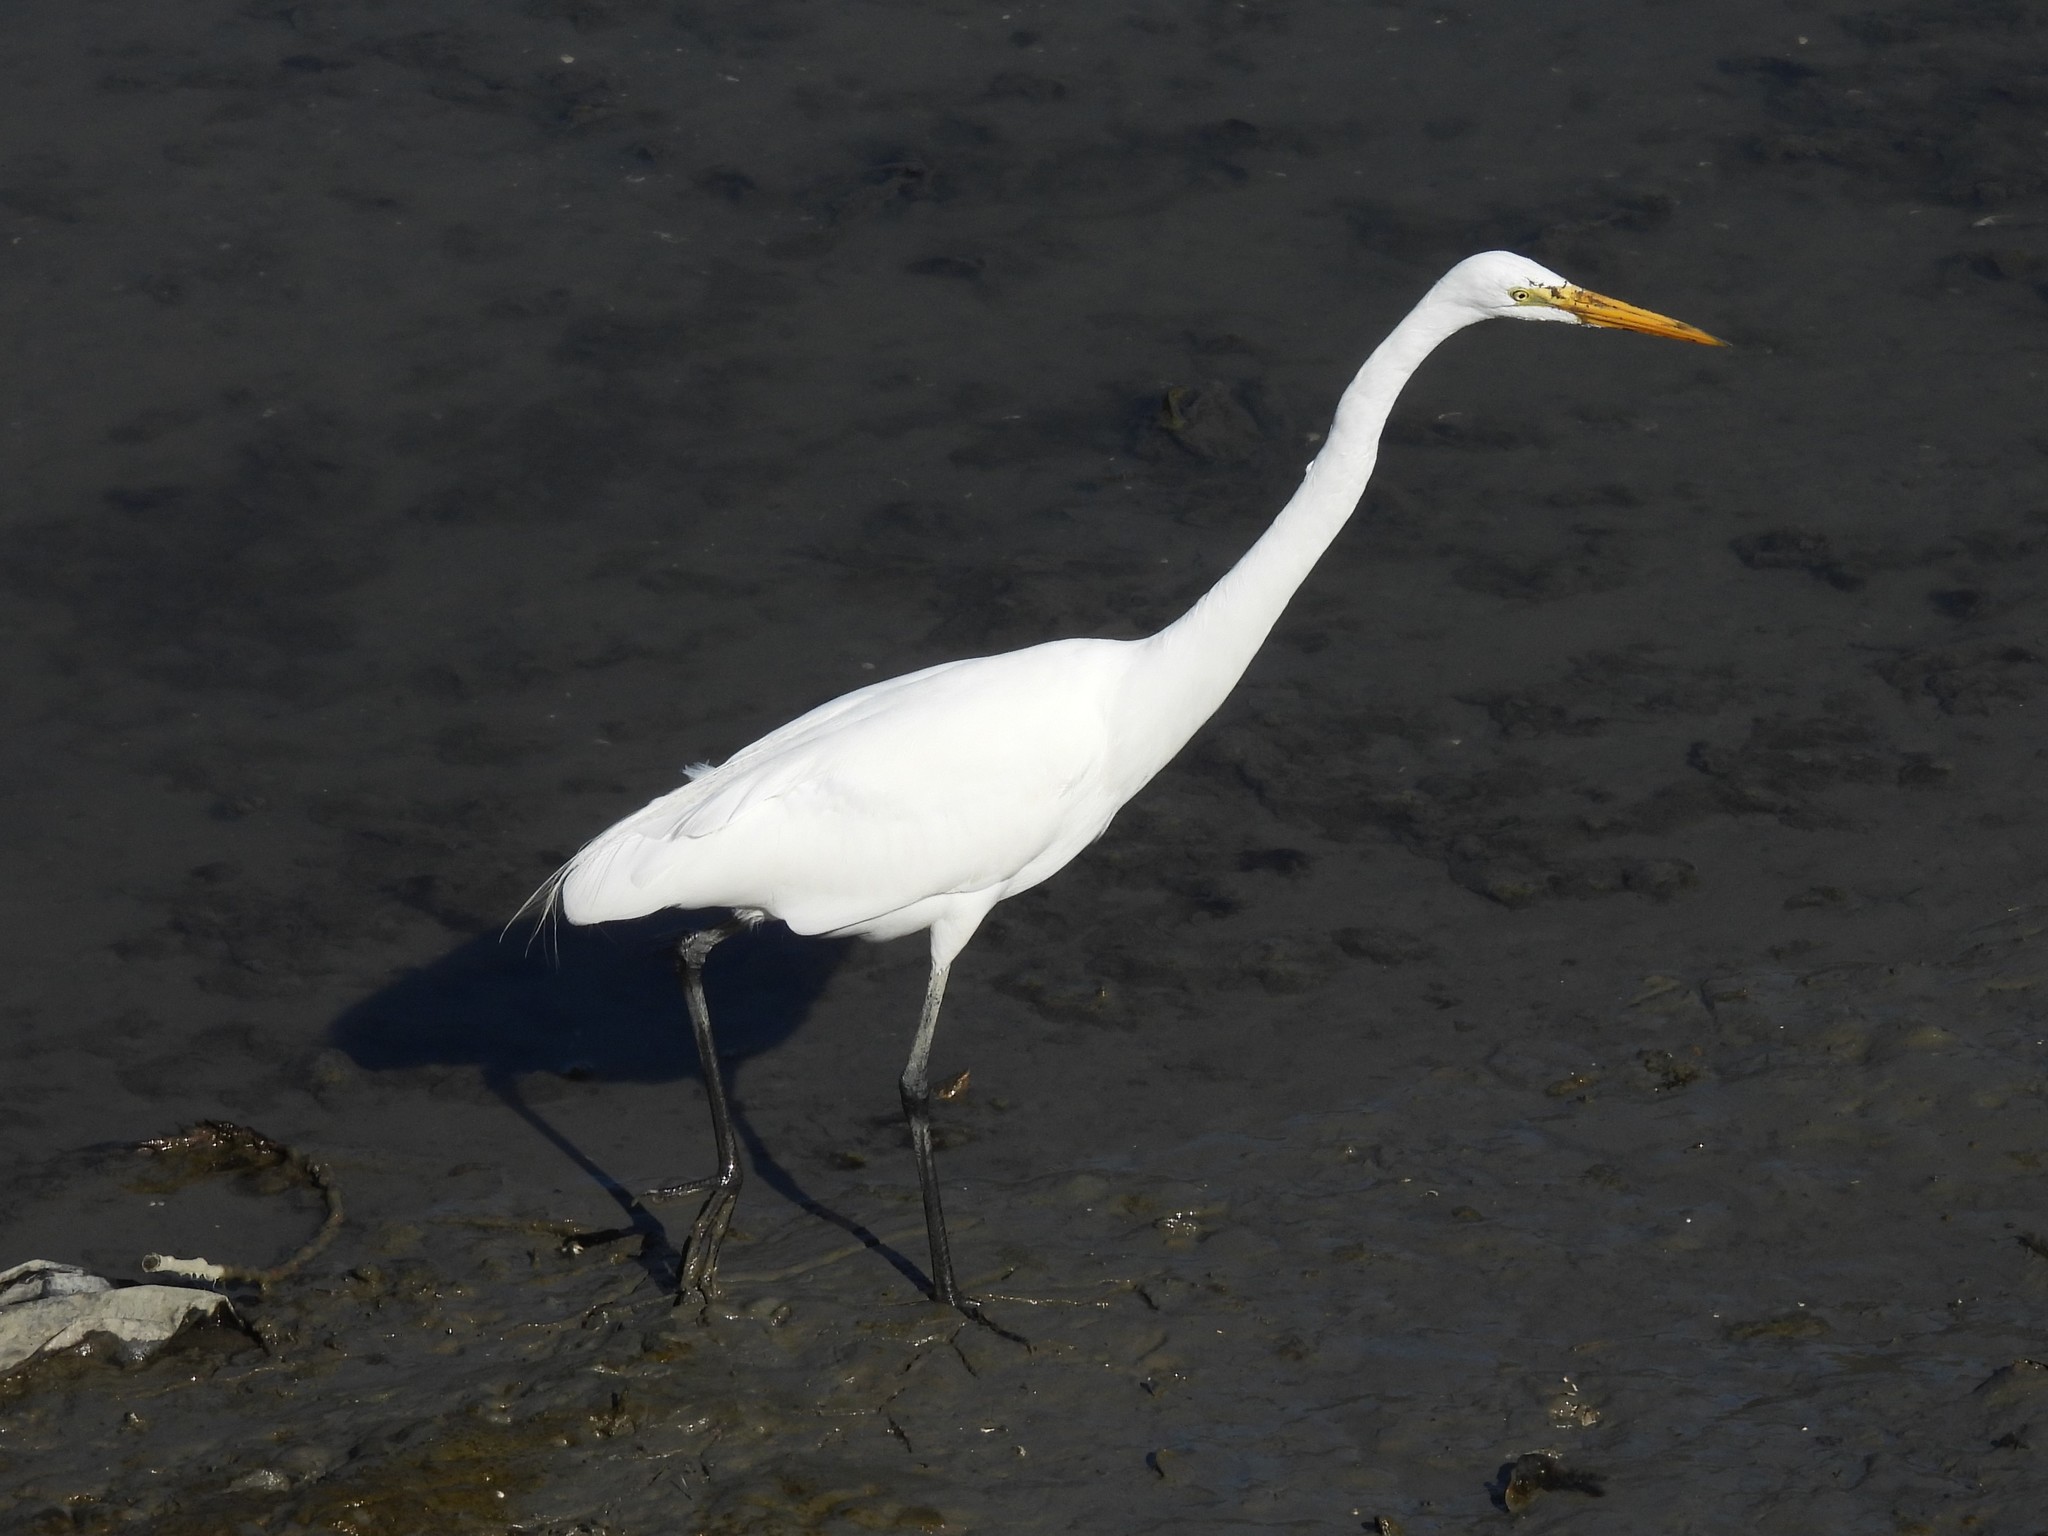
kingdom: Animalia
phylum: Chordata
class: Aves
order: Pelecaniformes
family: Ardeidae
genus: Ardea
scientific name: Ardea alba
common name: Great egret
